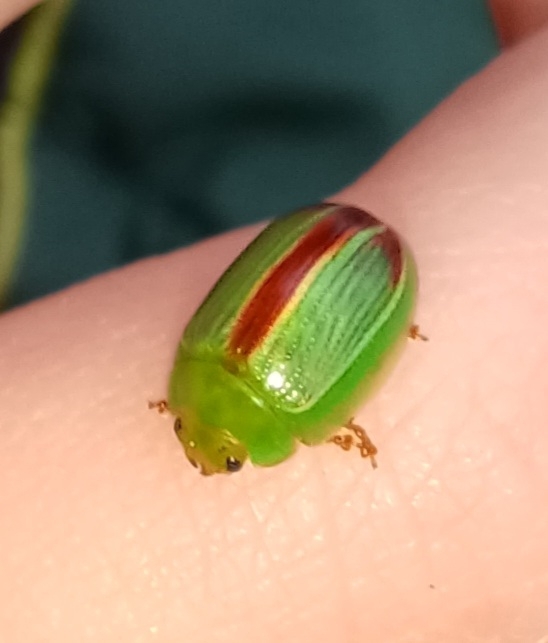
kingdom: Animalia
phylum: Arthropoda
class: Insecta
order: Coleoptera
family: Chrysomelidae
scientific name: Chrysomelidae
